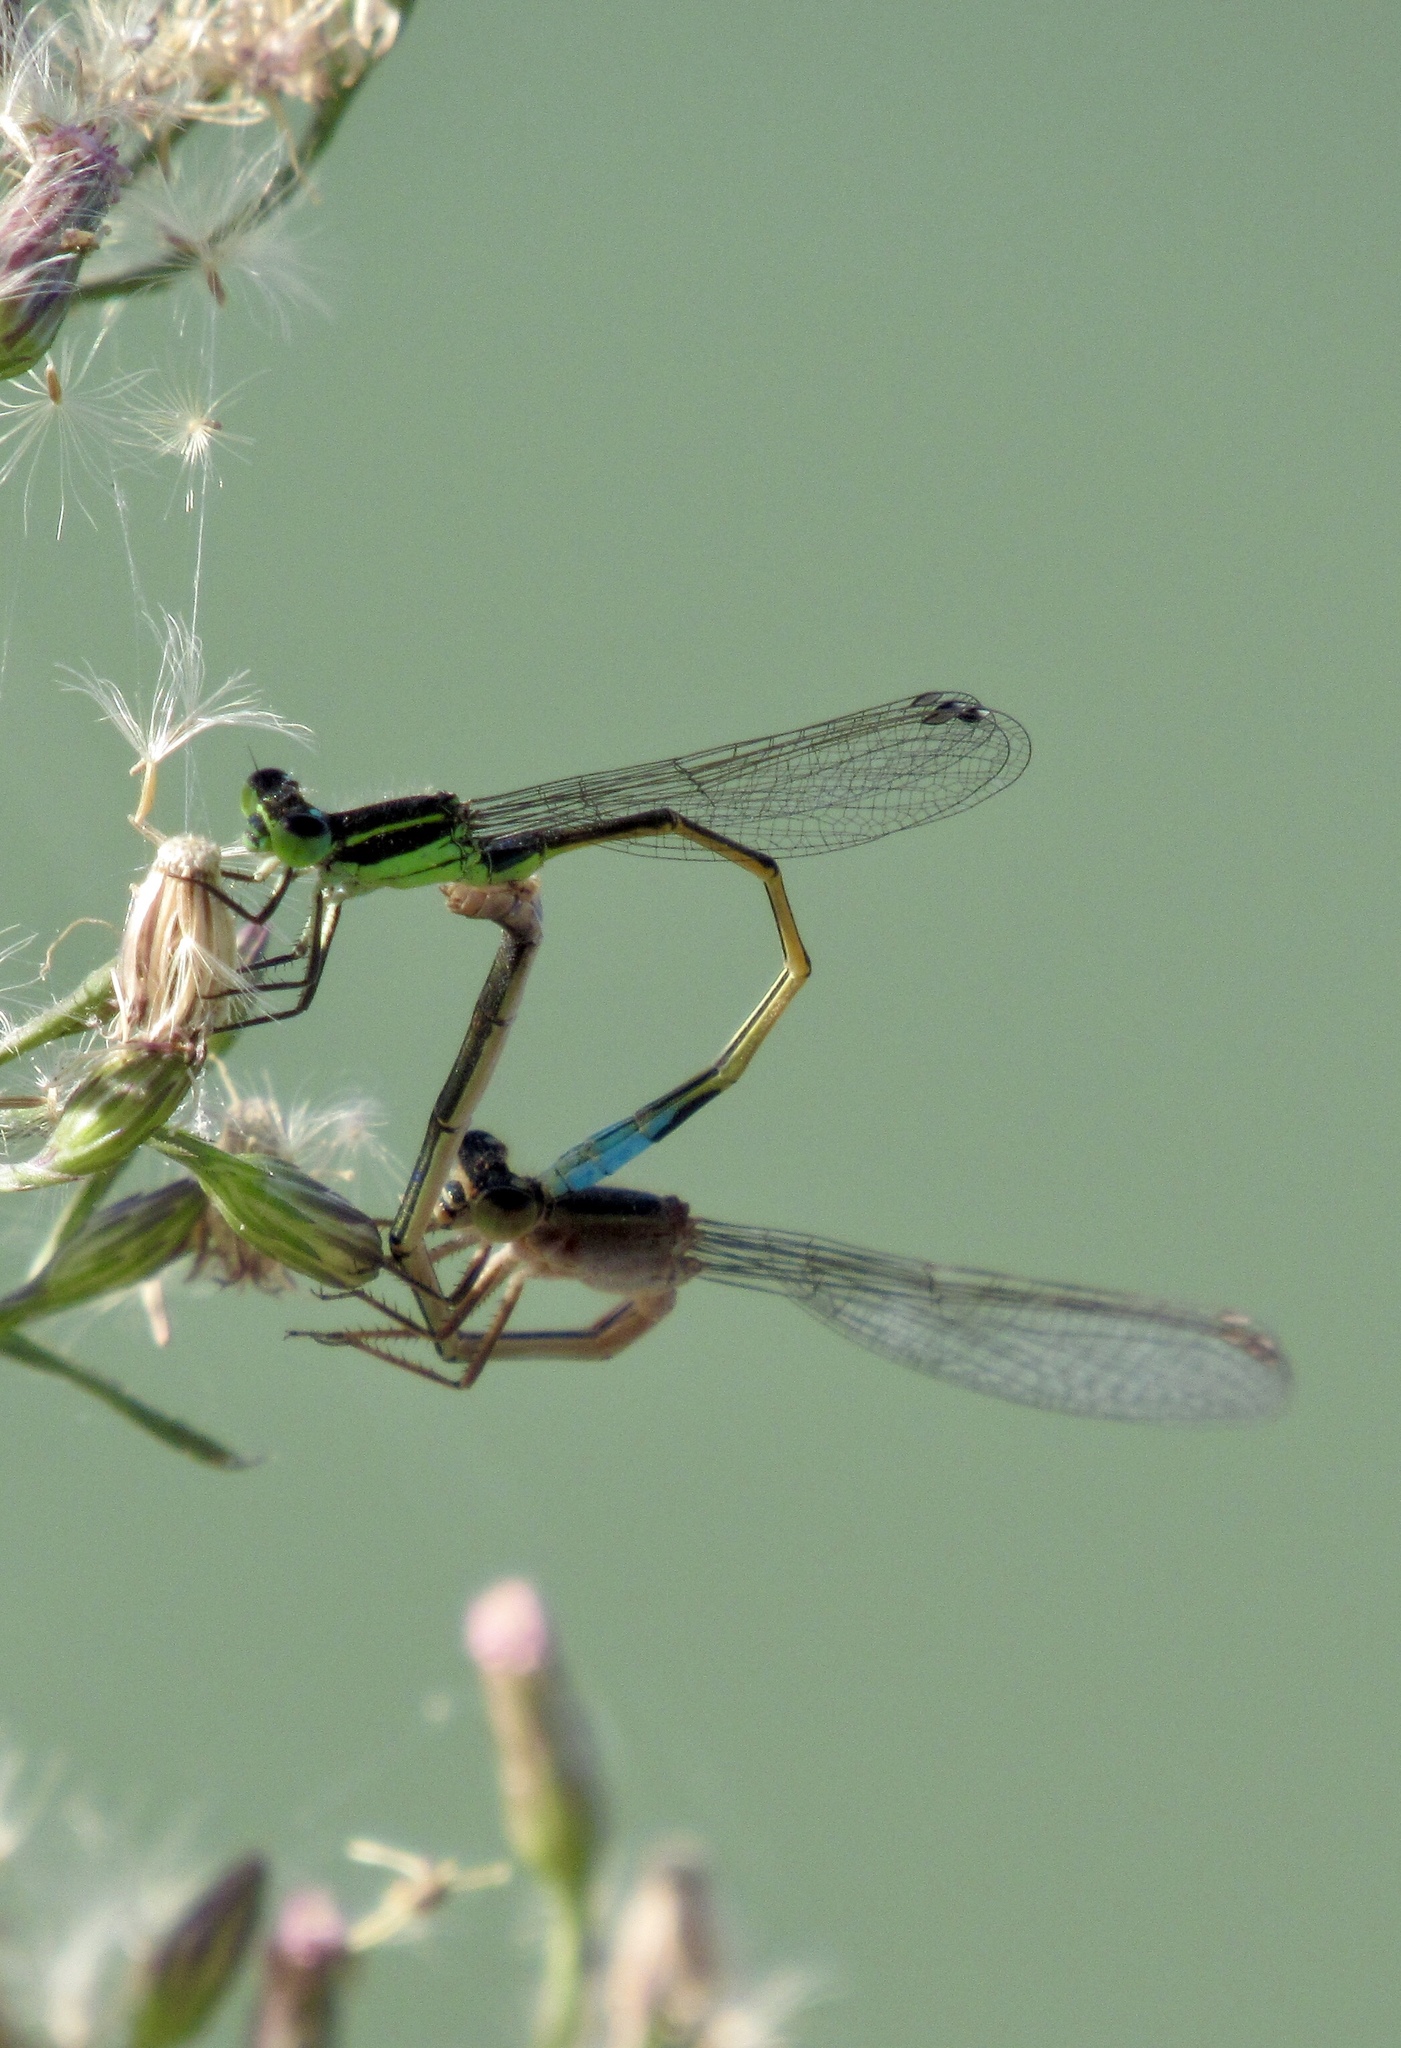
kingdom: Animalia
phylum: Arthropoda
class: Insecta
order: Odonata
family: Coenagrionidae
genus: Ischnura
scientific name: Ischnura ramburii
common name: Rambur's forktail
